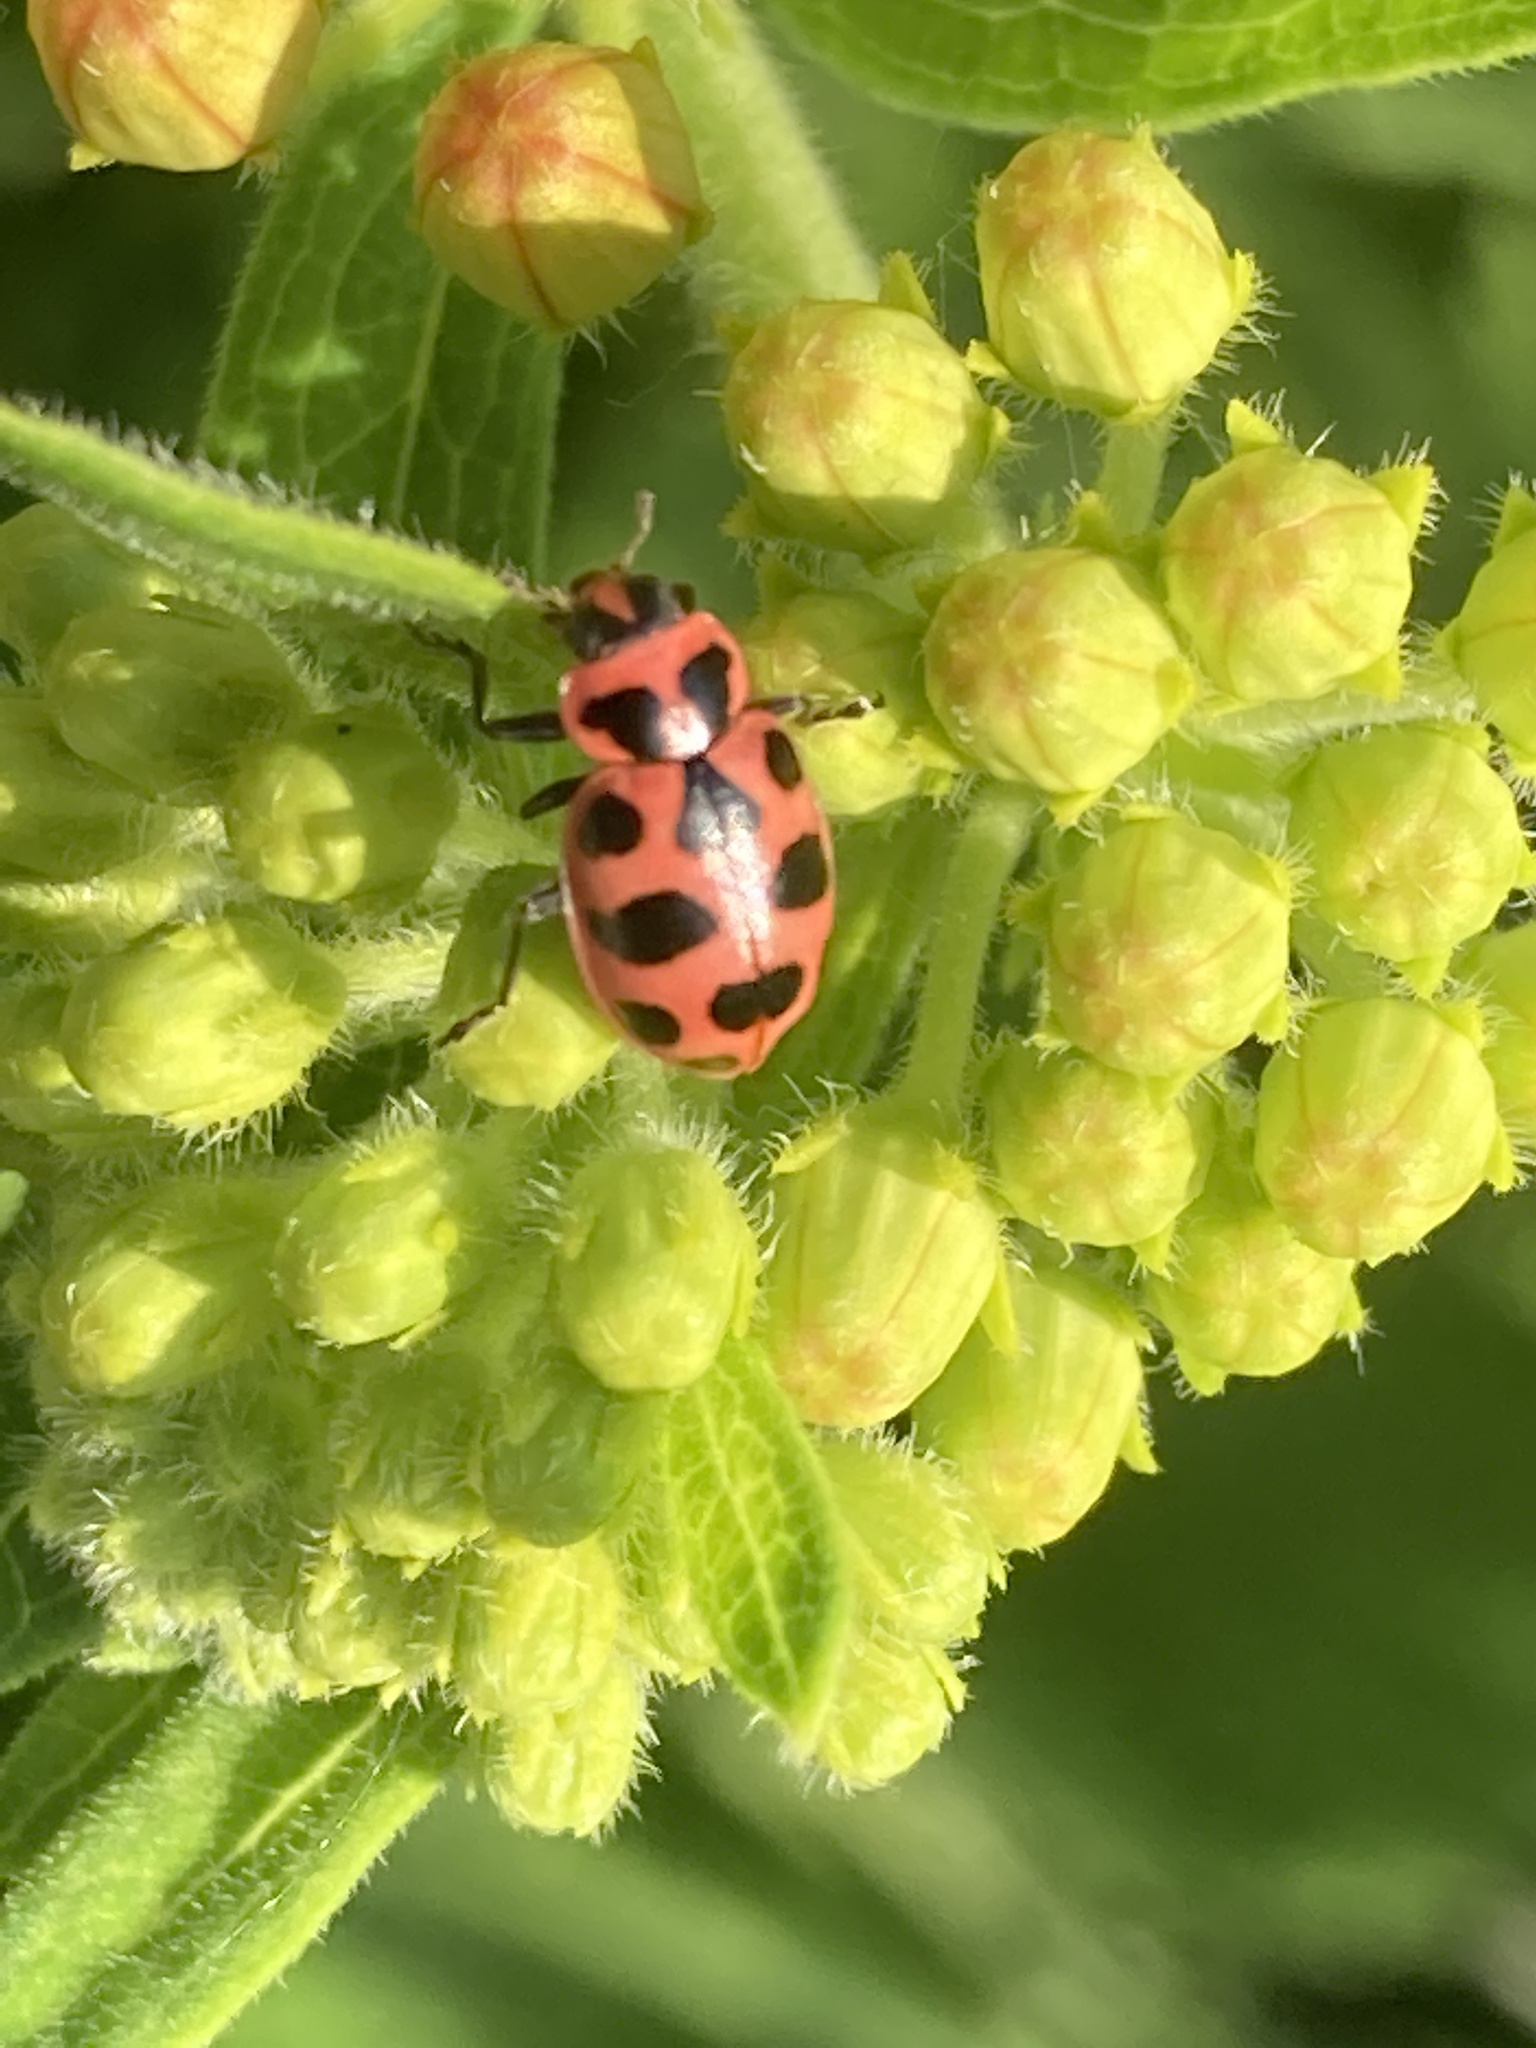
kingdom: Animalia
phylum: Arthropoda
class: Insecta
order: Coleoptera
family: Coccinellidae
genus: Coleomegilla
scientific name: Coleomegilla maculata
